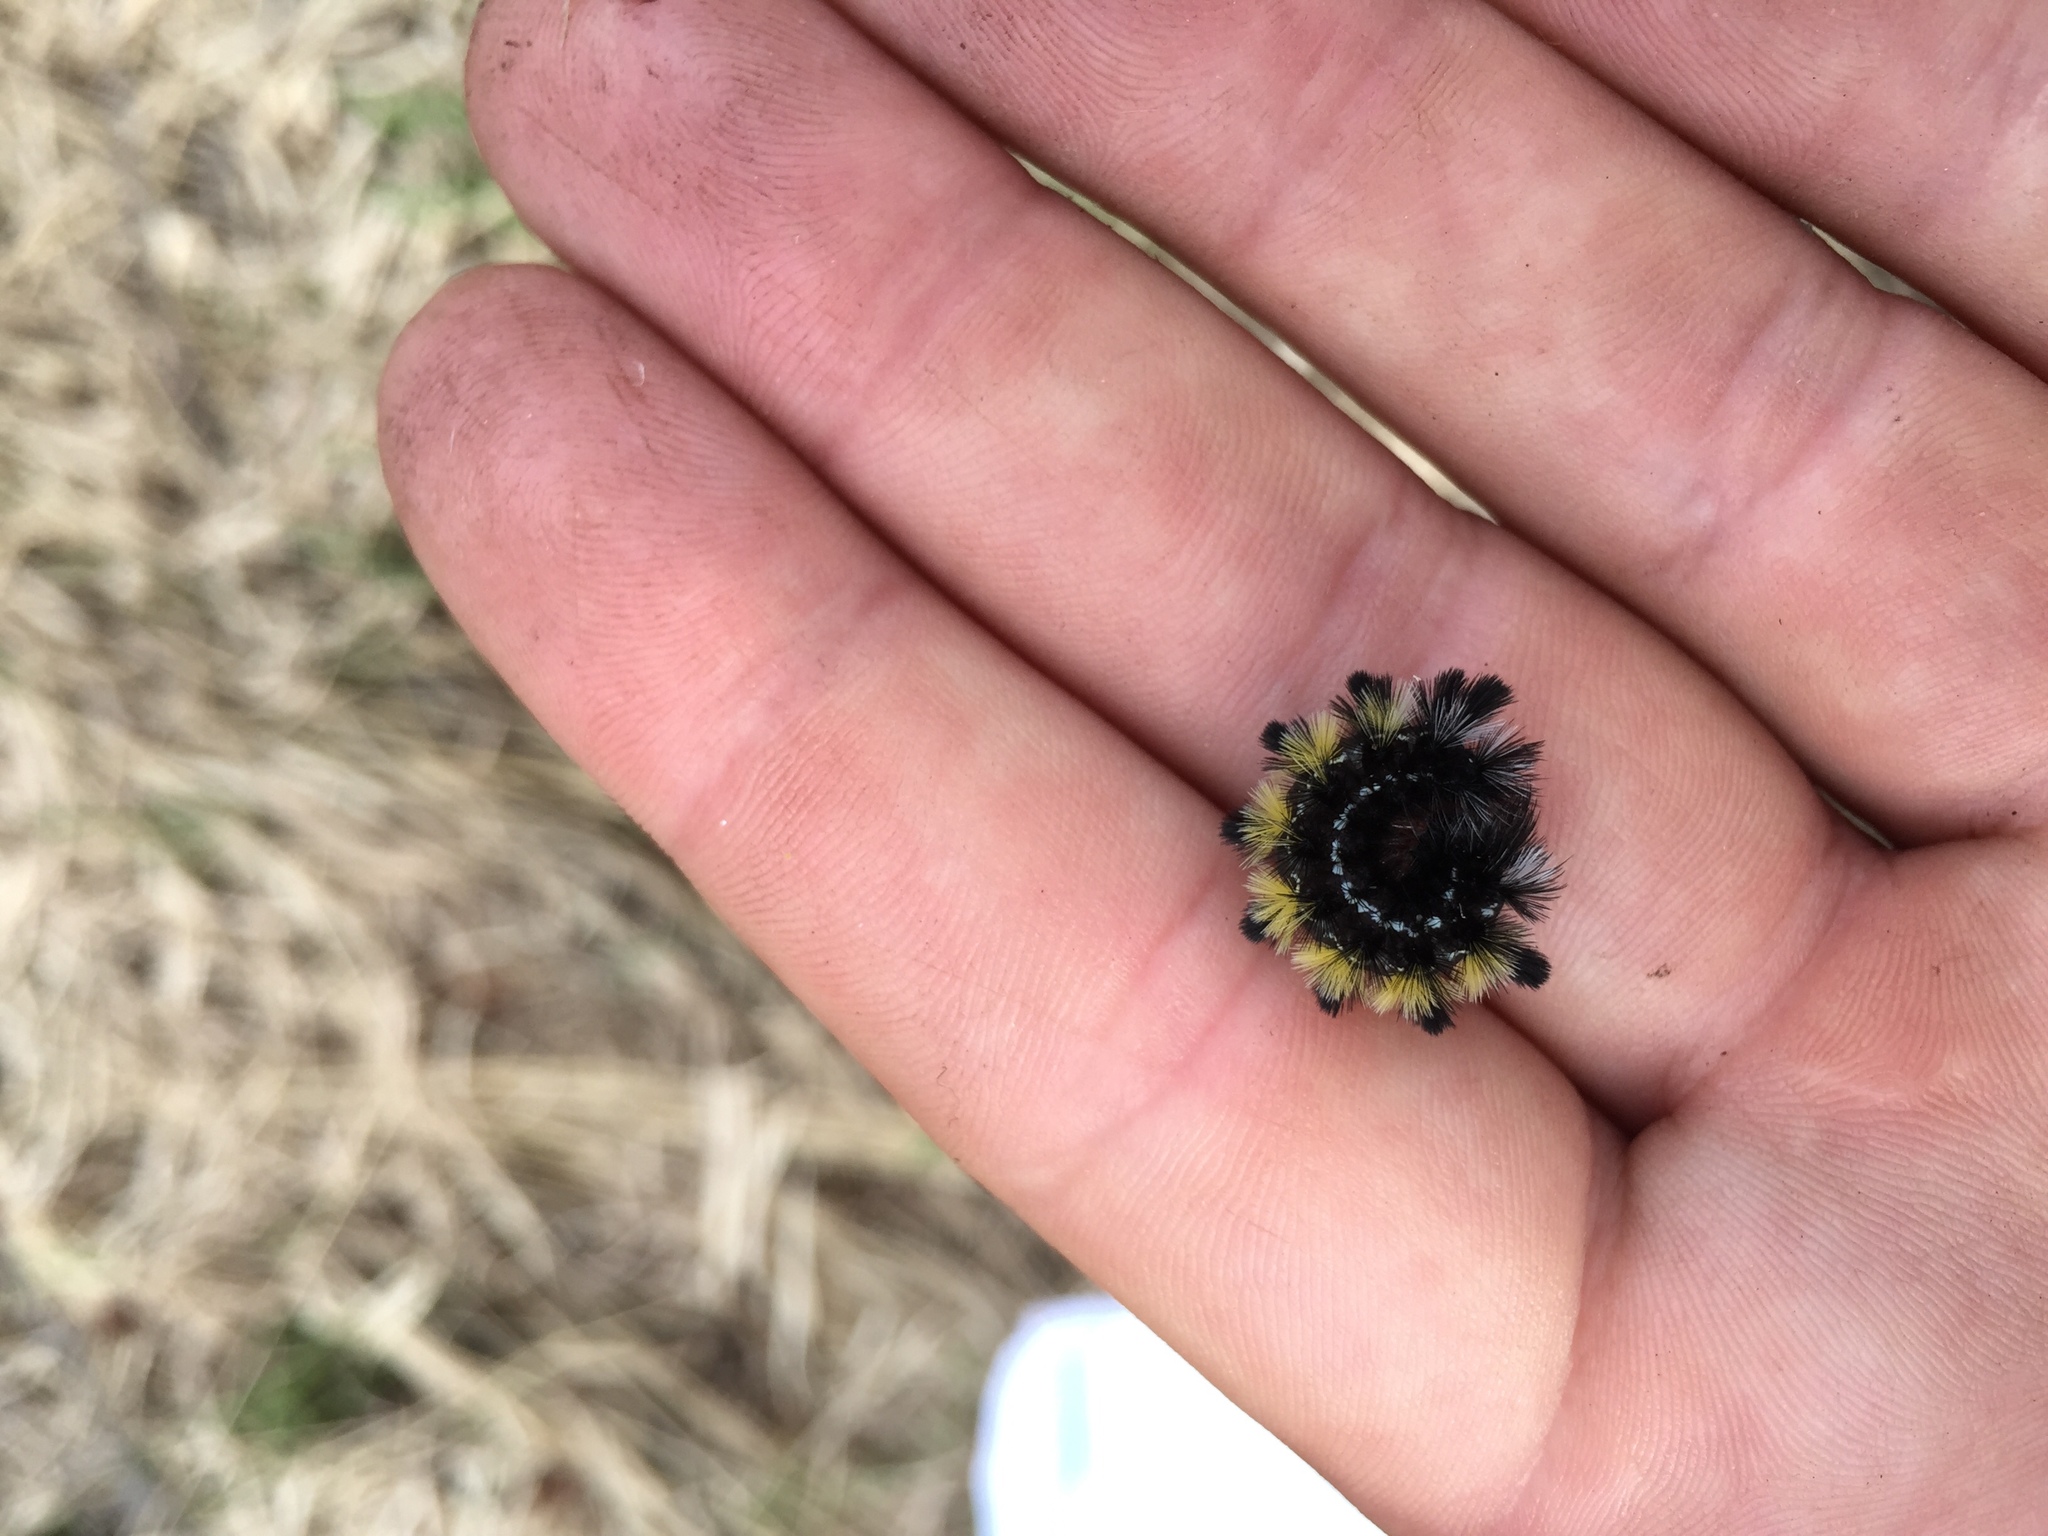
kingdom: Animalia
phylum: Arthropoda
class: Insecta
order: Lepidoptera
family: Erebidae
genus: Ctenucha
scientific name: Ctenucha virginica
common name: Virginia ctenucha moth
